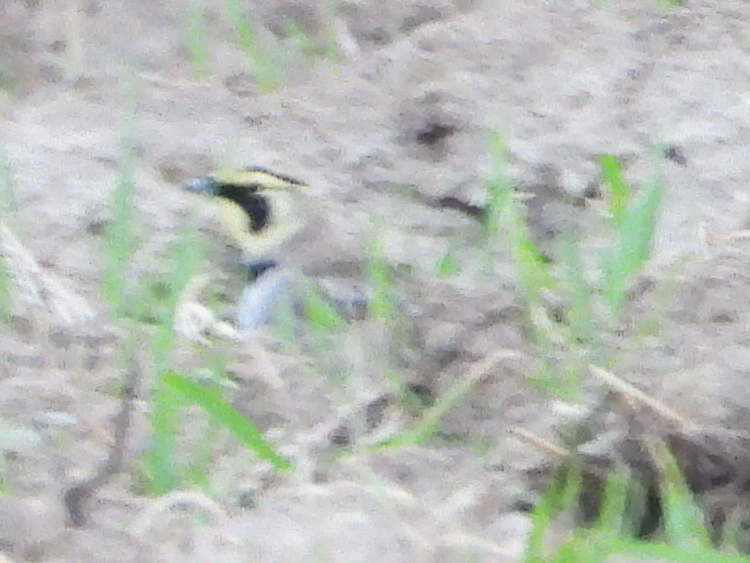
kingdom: Animalia
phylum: Chordata
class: Aves
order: Passeriformes
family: Alaudidae
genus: Eremophila
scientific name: Eremophila alpestris
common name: Horned lark
